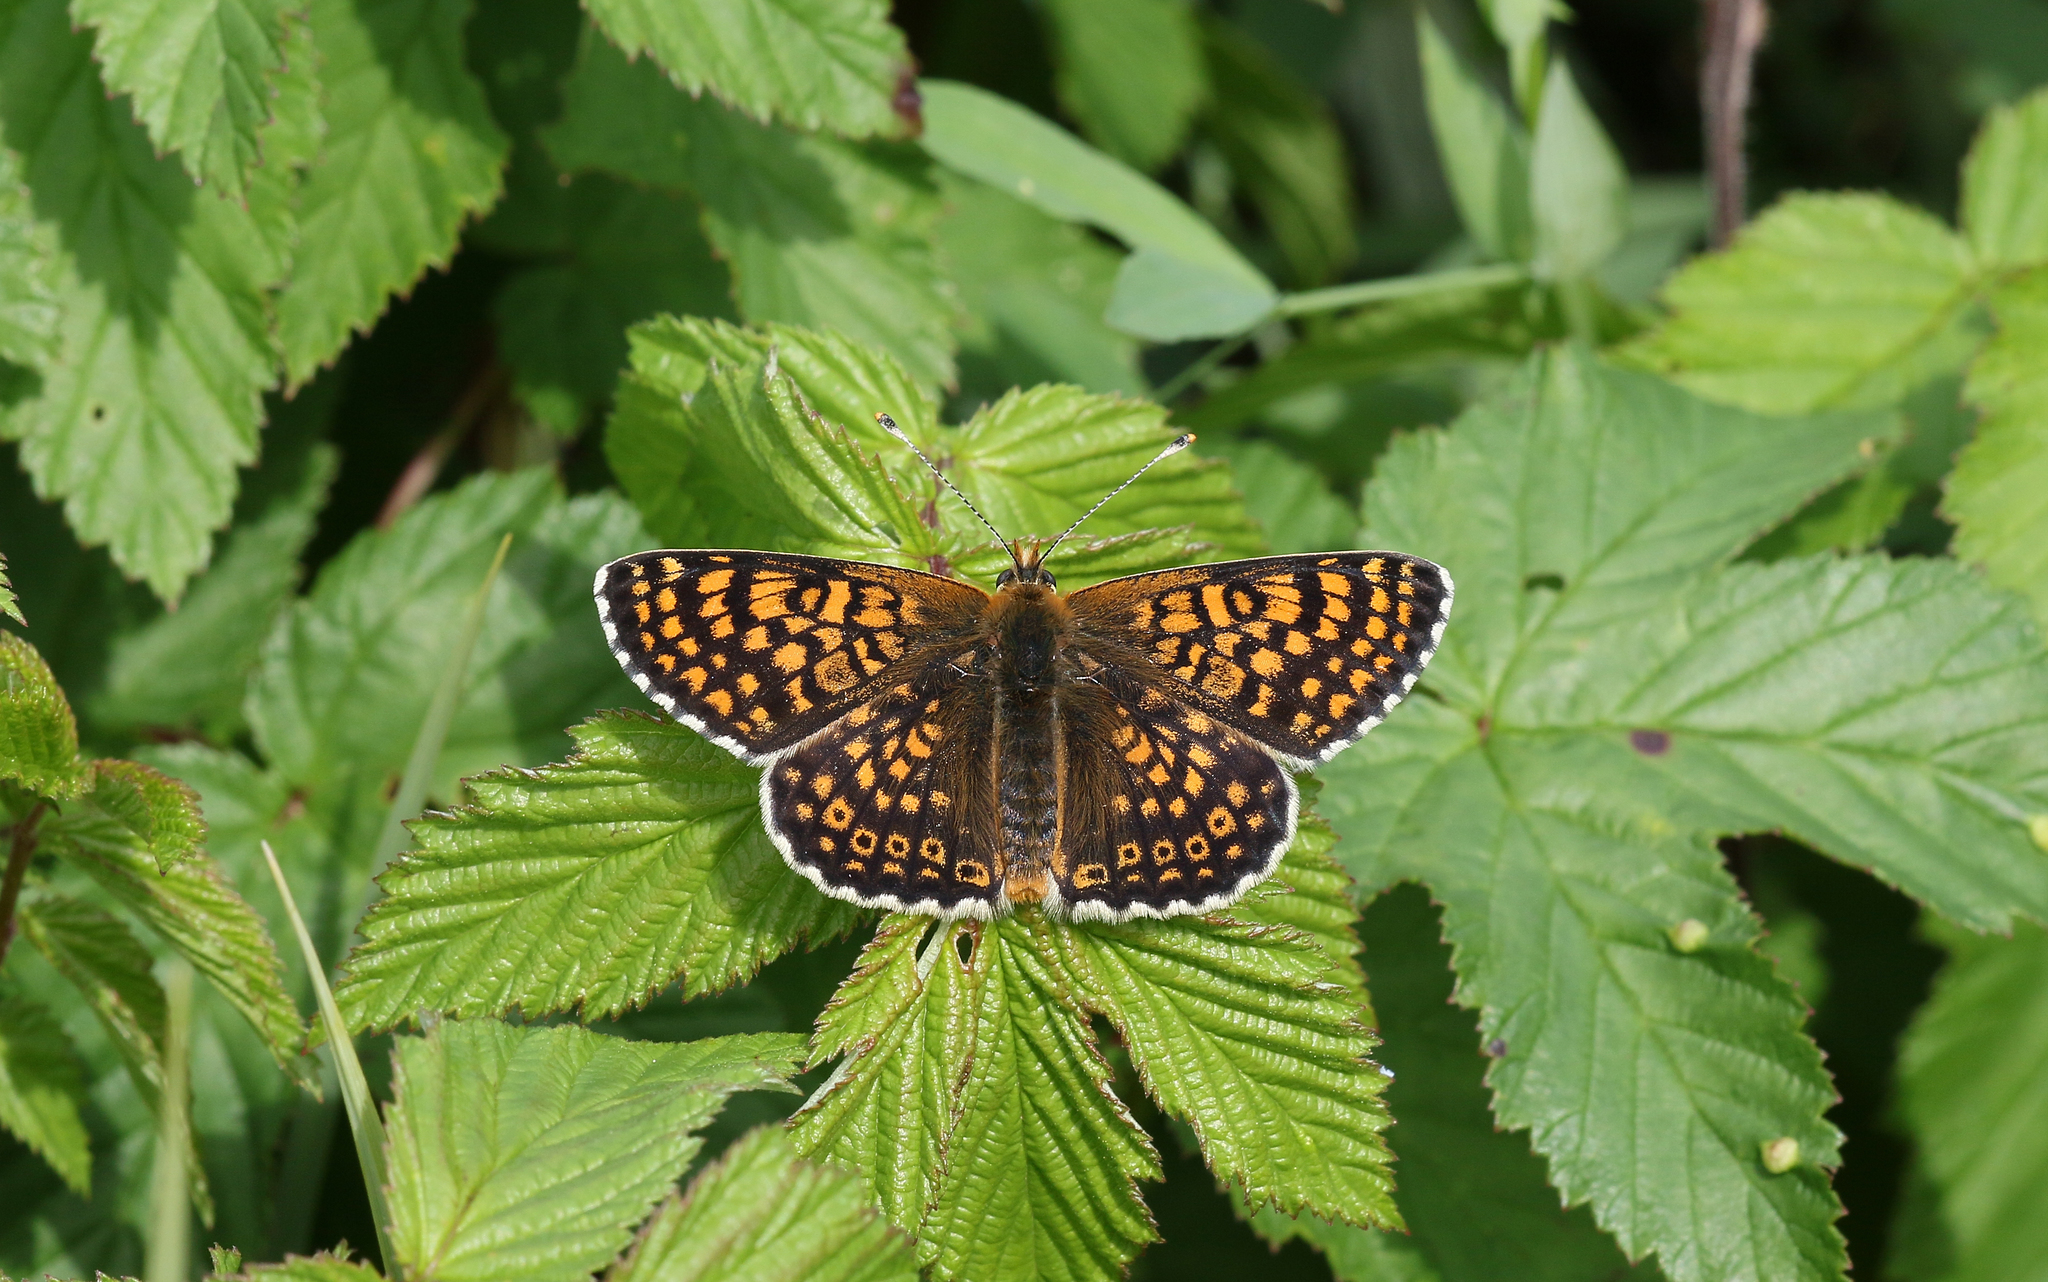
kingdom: Animalia
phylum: Arthropoda
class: Insecta
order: Lepidoptera
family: Nymphalidae
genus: Melitaea
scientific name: Melitaea cinxia
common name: Glanville fritillary
